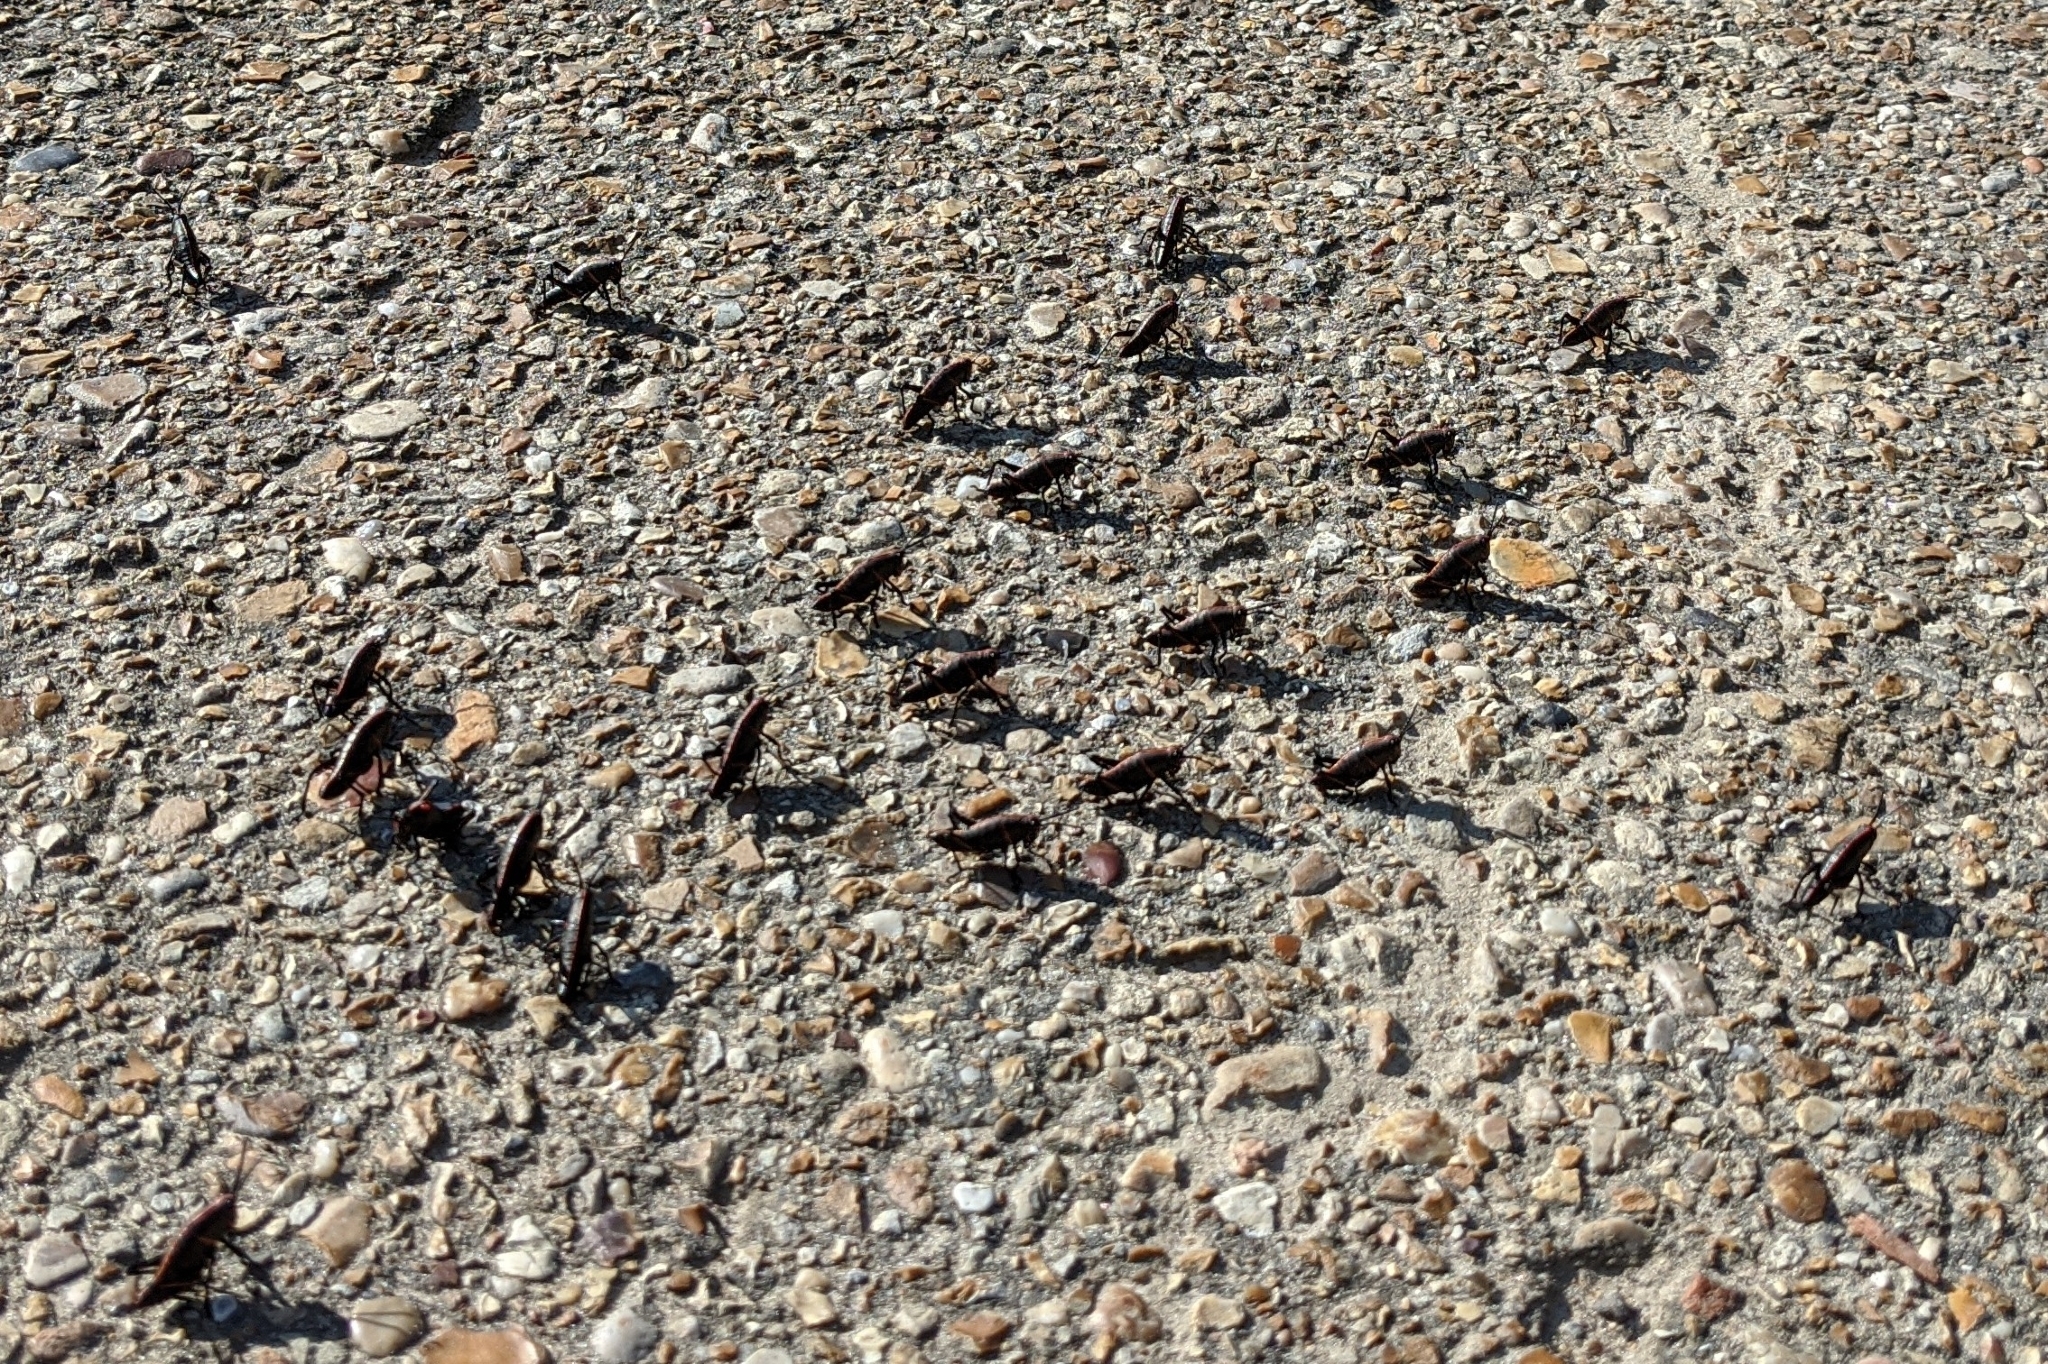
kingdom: Animalia
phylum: Arthropoda
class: Insecta
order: Orthoptera
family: Romaleidae
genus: Romalea
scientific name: Romalea microptera
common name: Eastern lubber grasshopper
